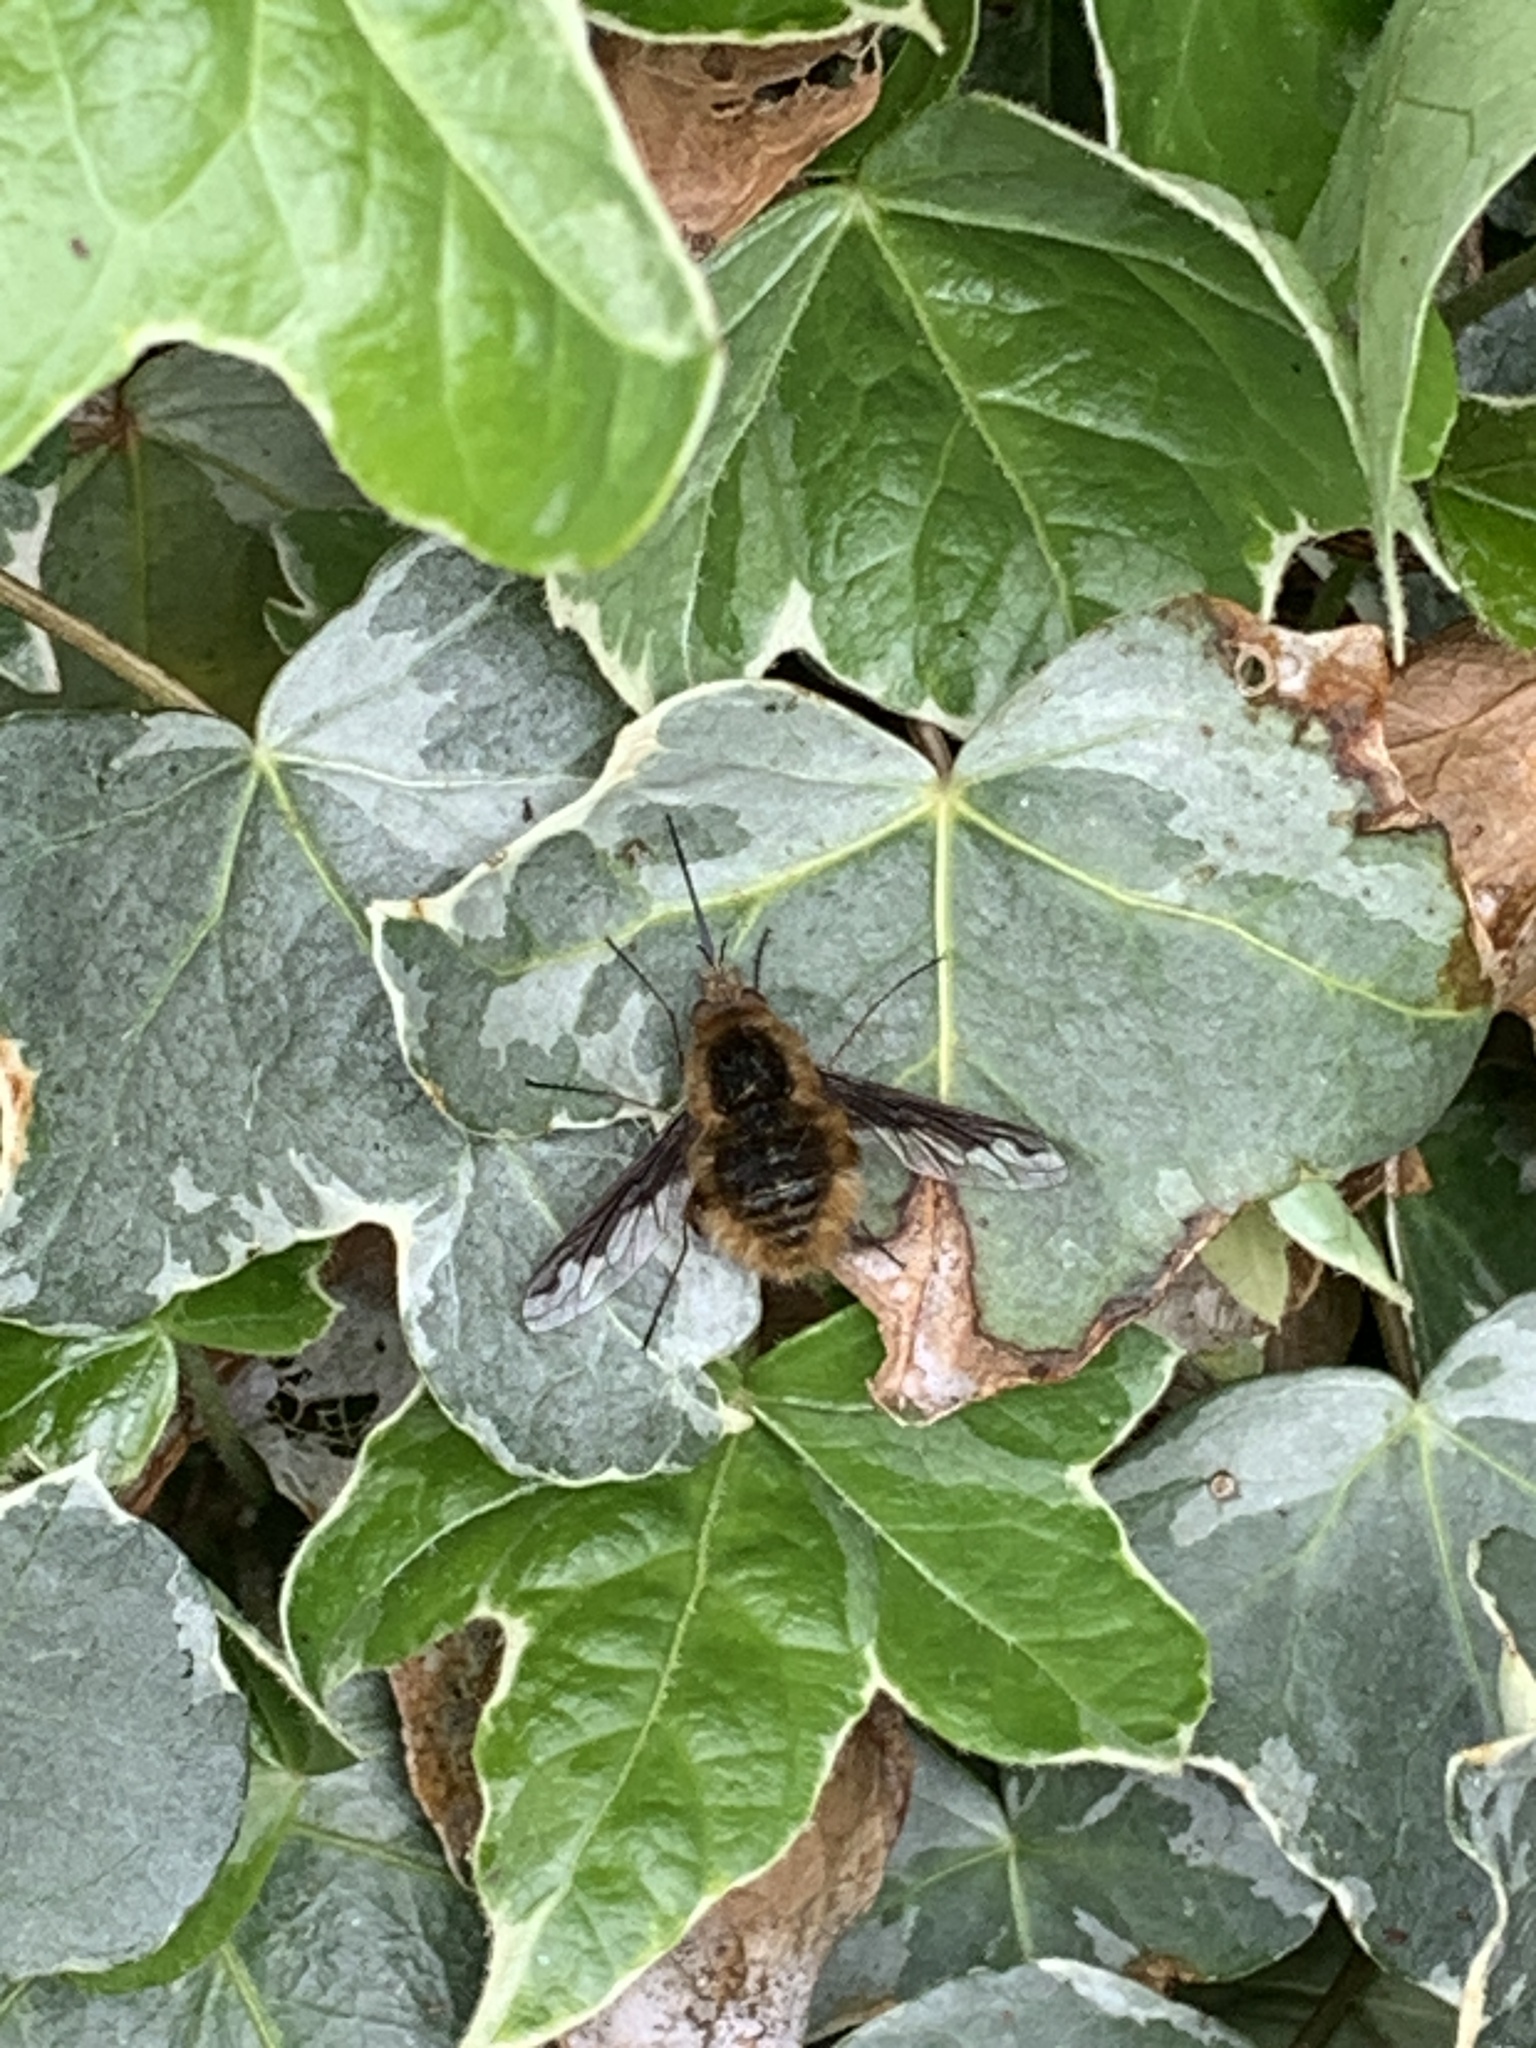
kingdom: Animalia
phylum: Arthropoda
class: Insecta
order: Diptera
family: Bombyliidae
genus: Bombylius
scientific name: Bombylius major
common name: Bee fly
